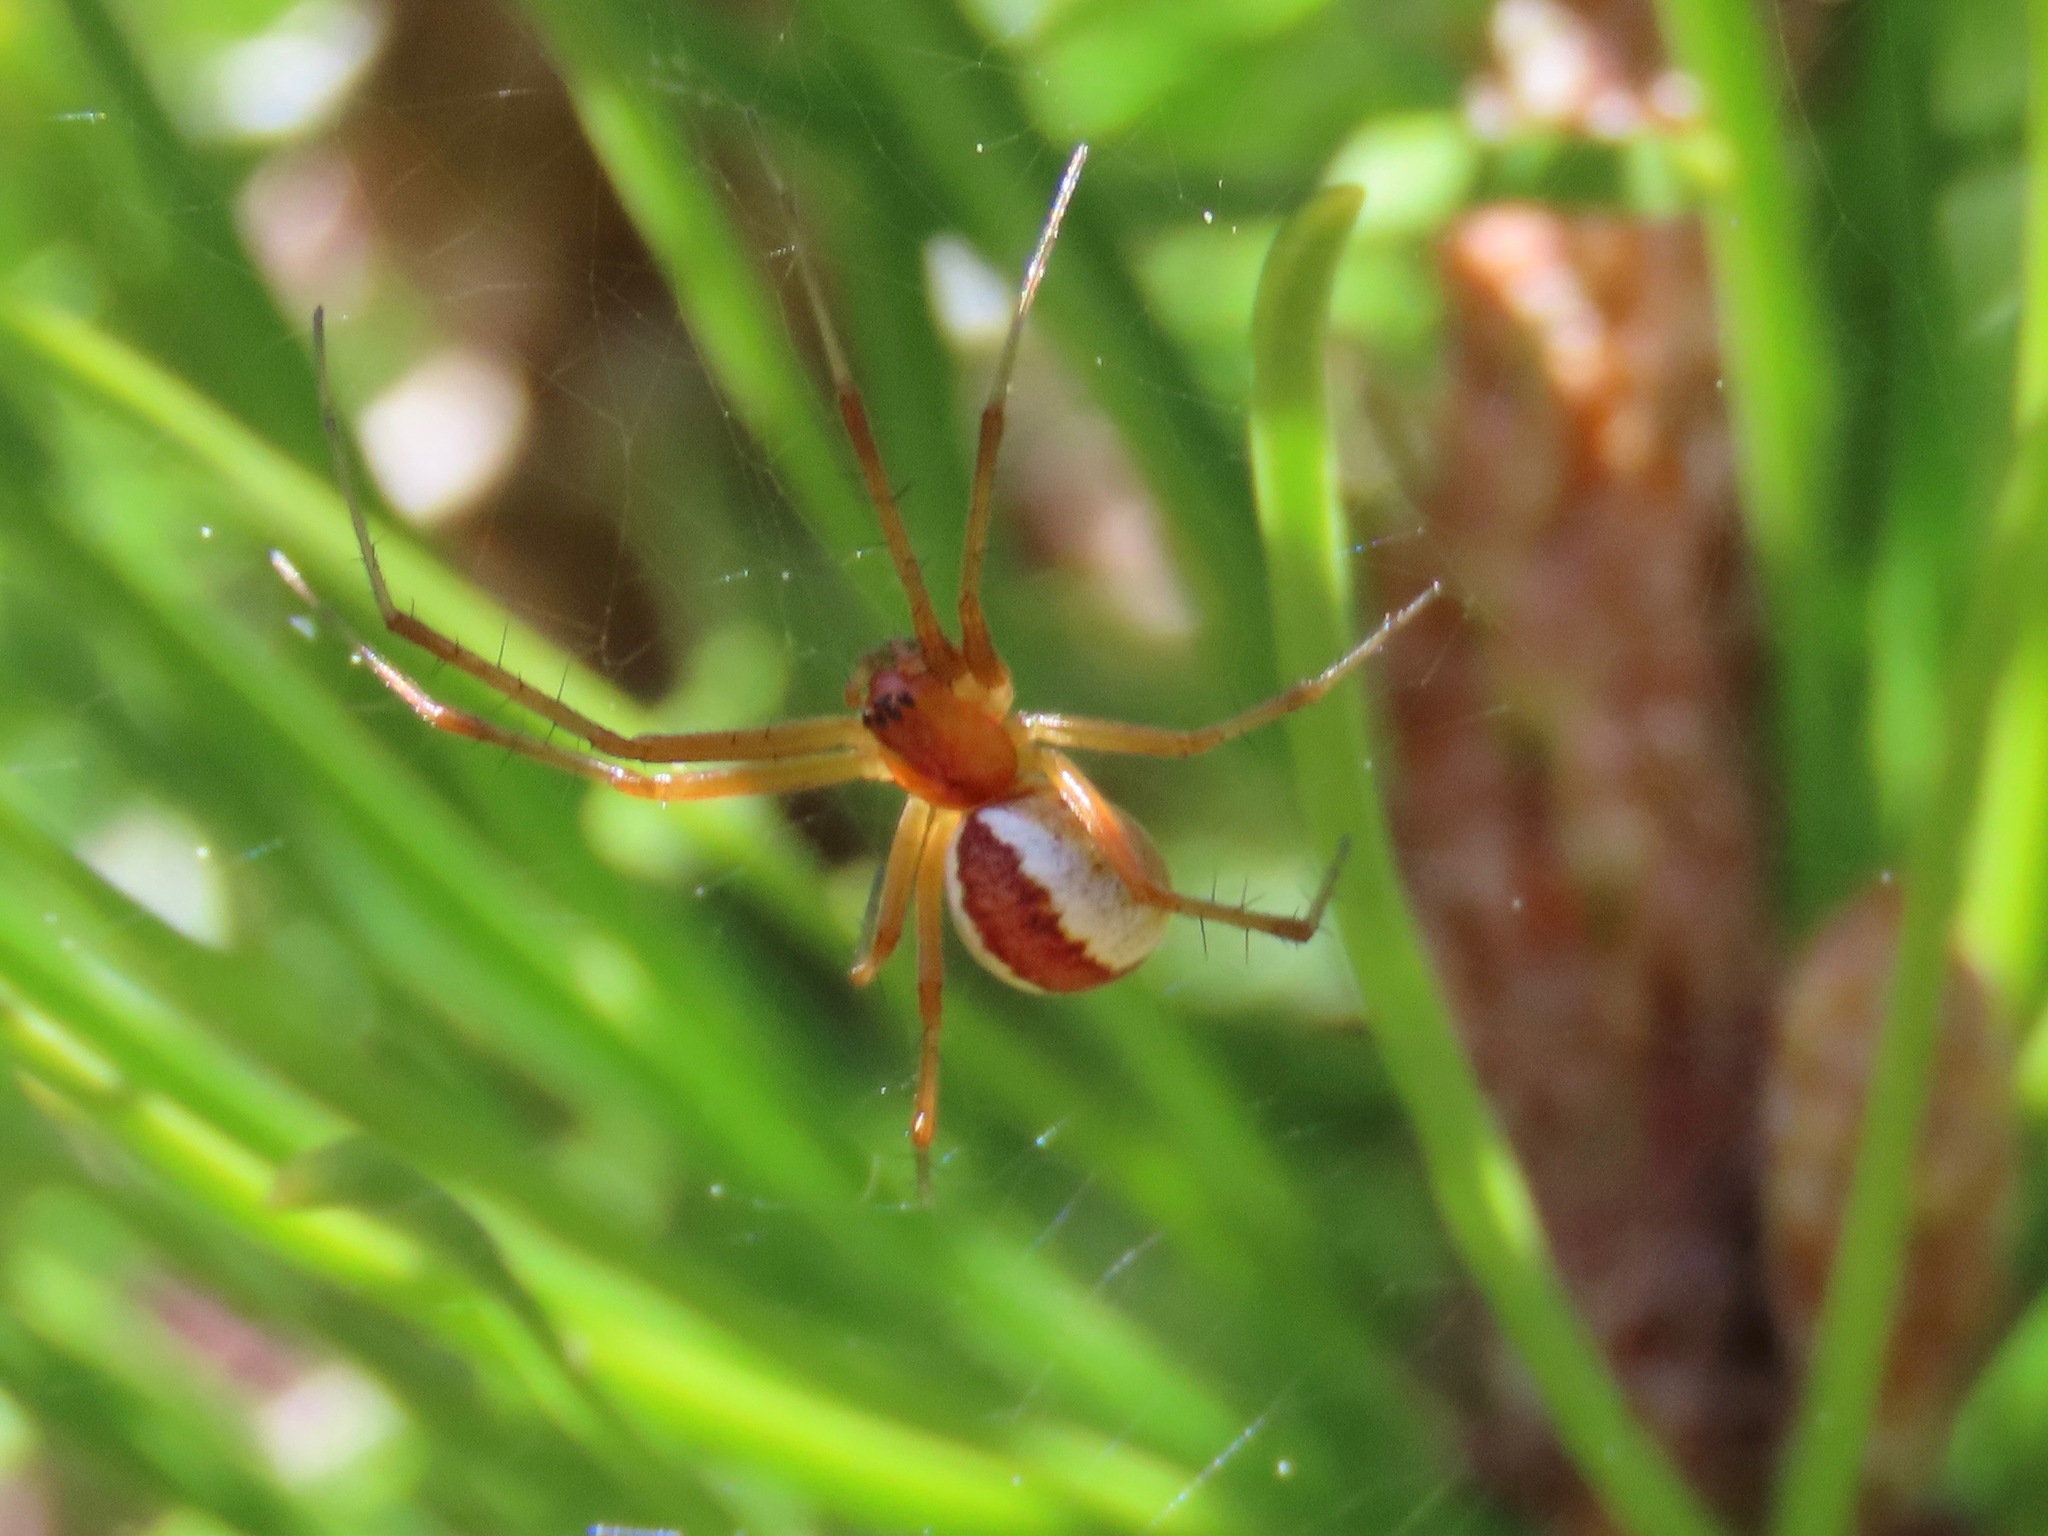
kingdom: Animalia
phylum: Arthropoda
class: Arachnida
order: Araneae
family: Linyphiidae
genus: Pityohyphantes
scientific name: Pityohyphantes rubrofasciatus
